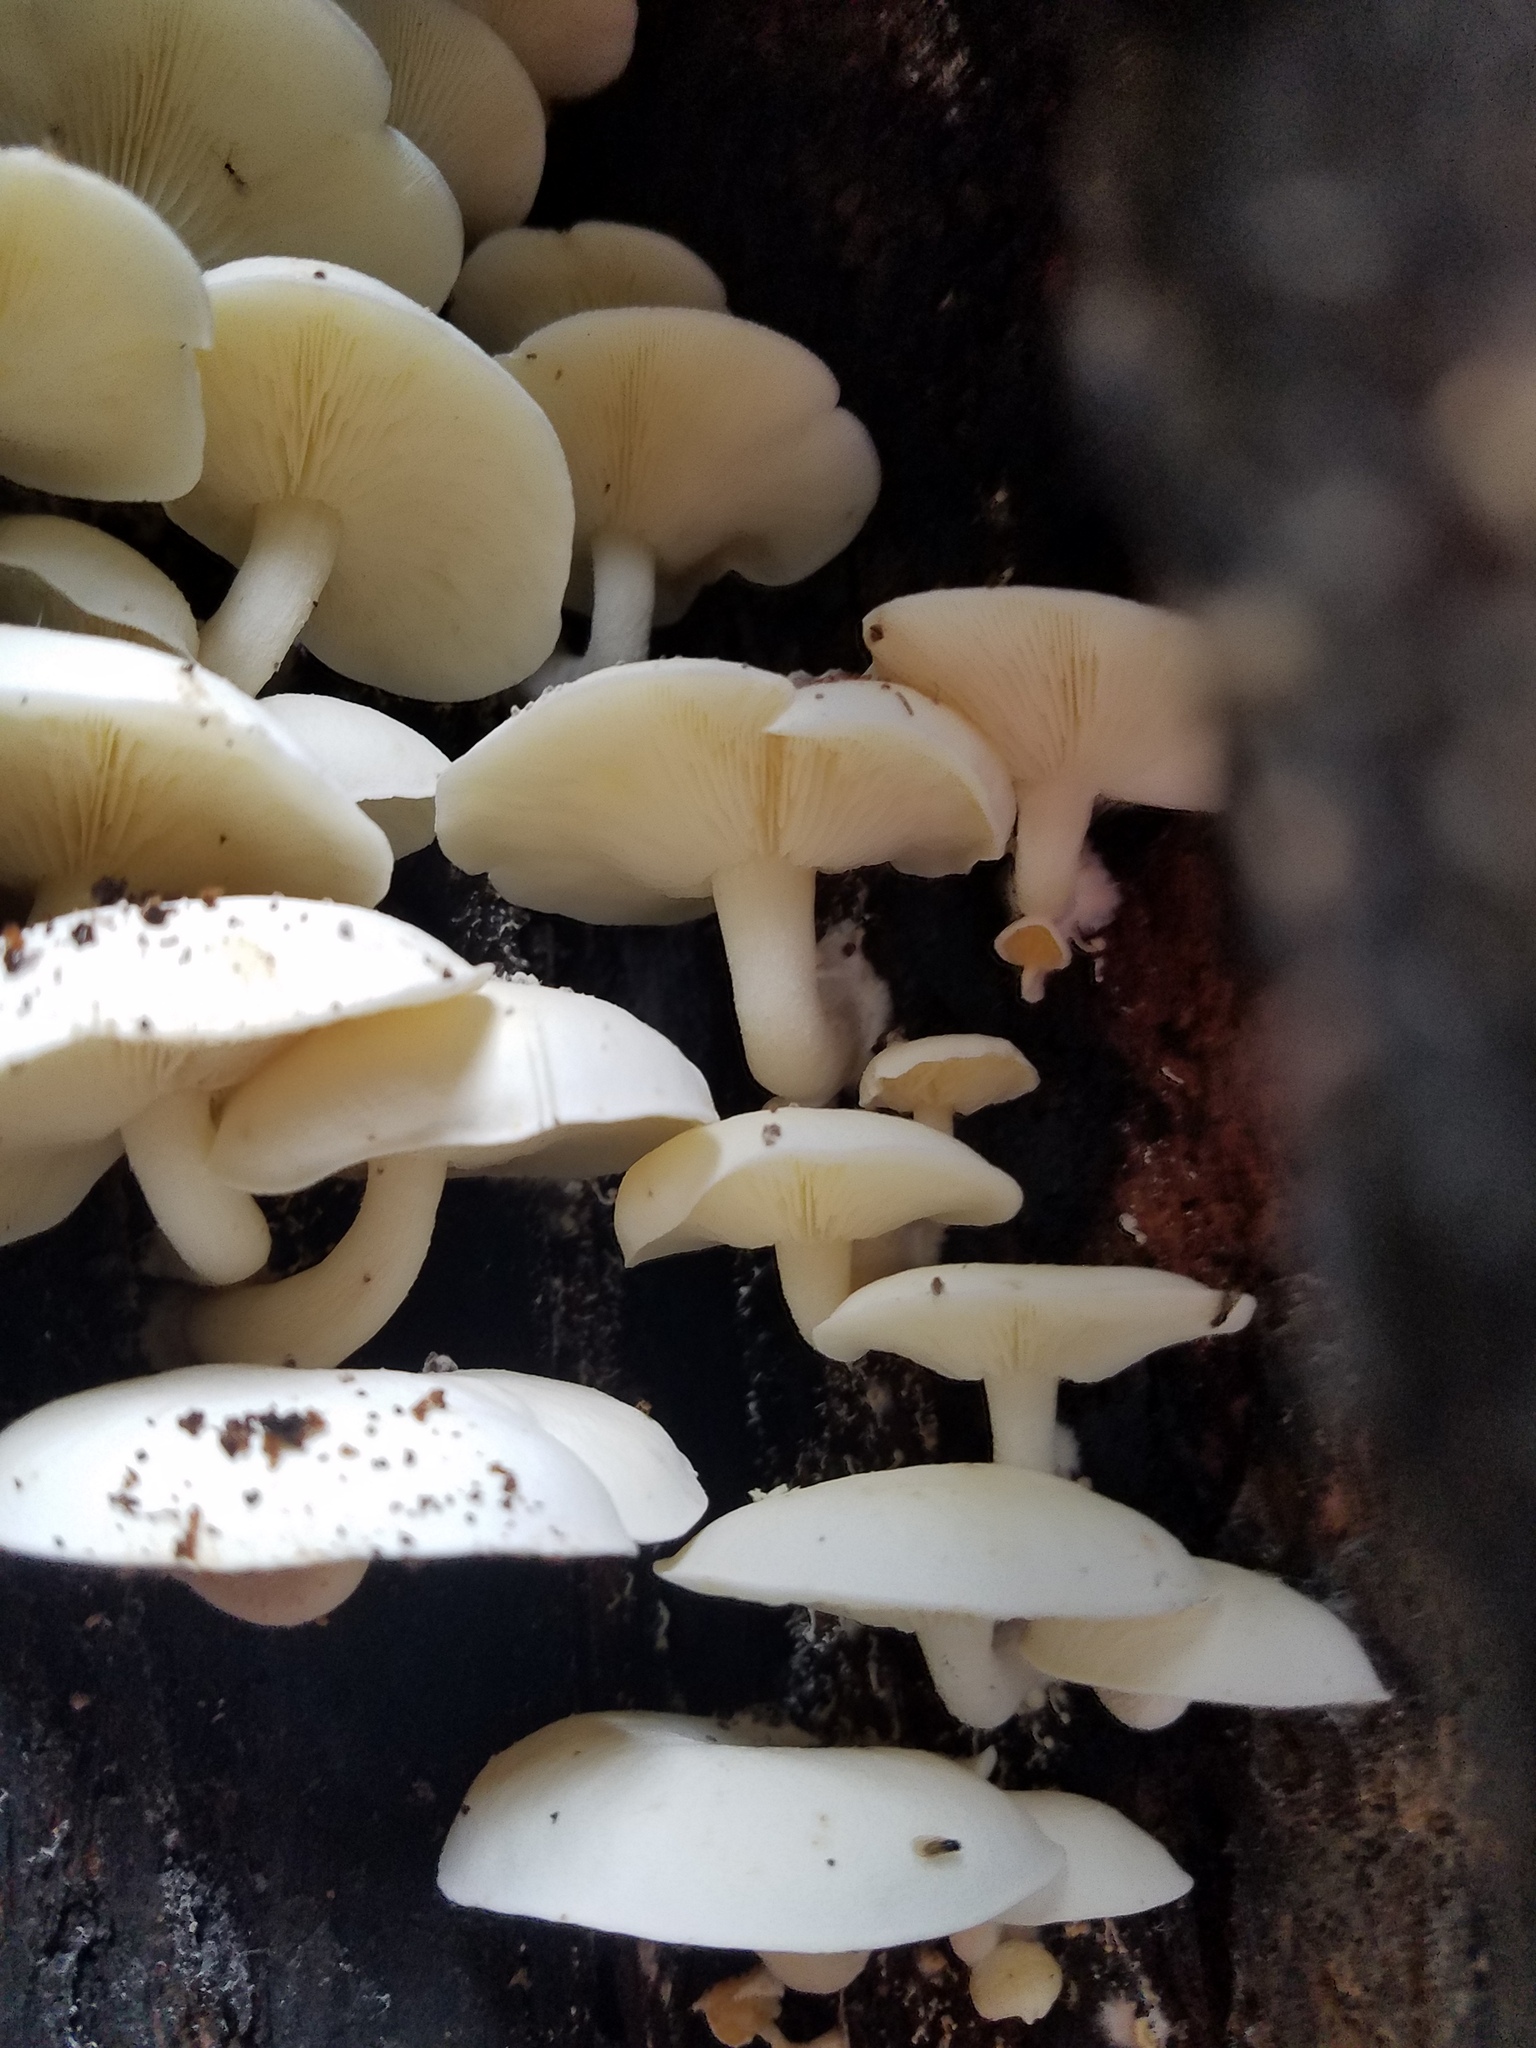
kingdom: Fungi
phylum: Basidiomycota
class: Agaricomycetes
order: Agaricales
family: Lyophyllaceae
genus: Ossicaulis
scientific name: Ossicaulis lignatilis
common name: Mealy oyster
